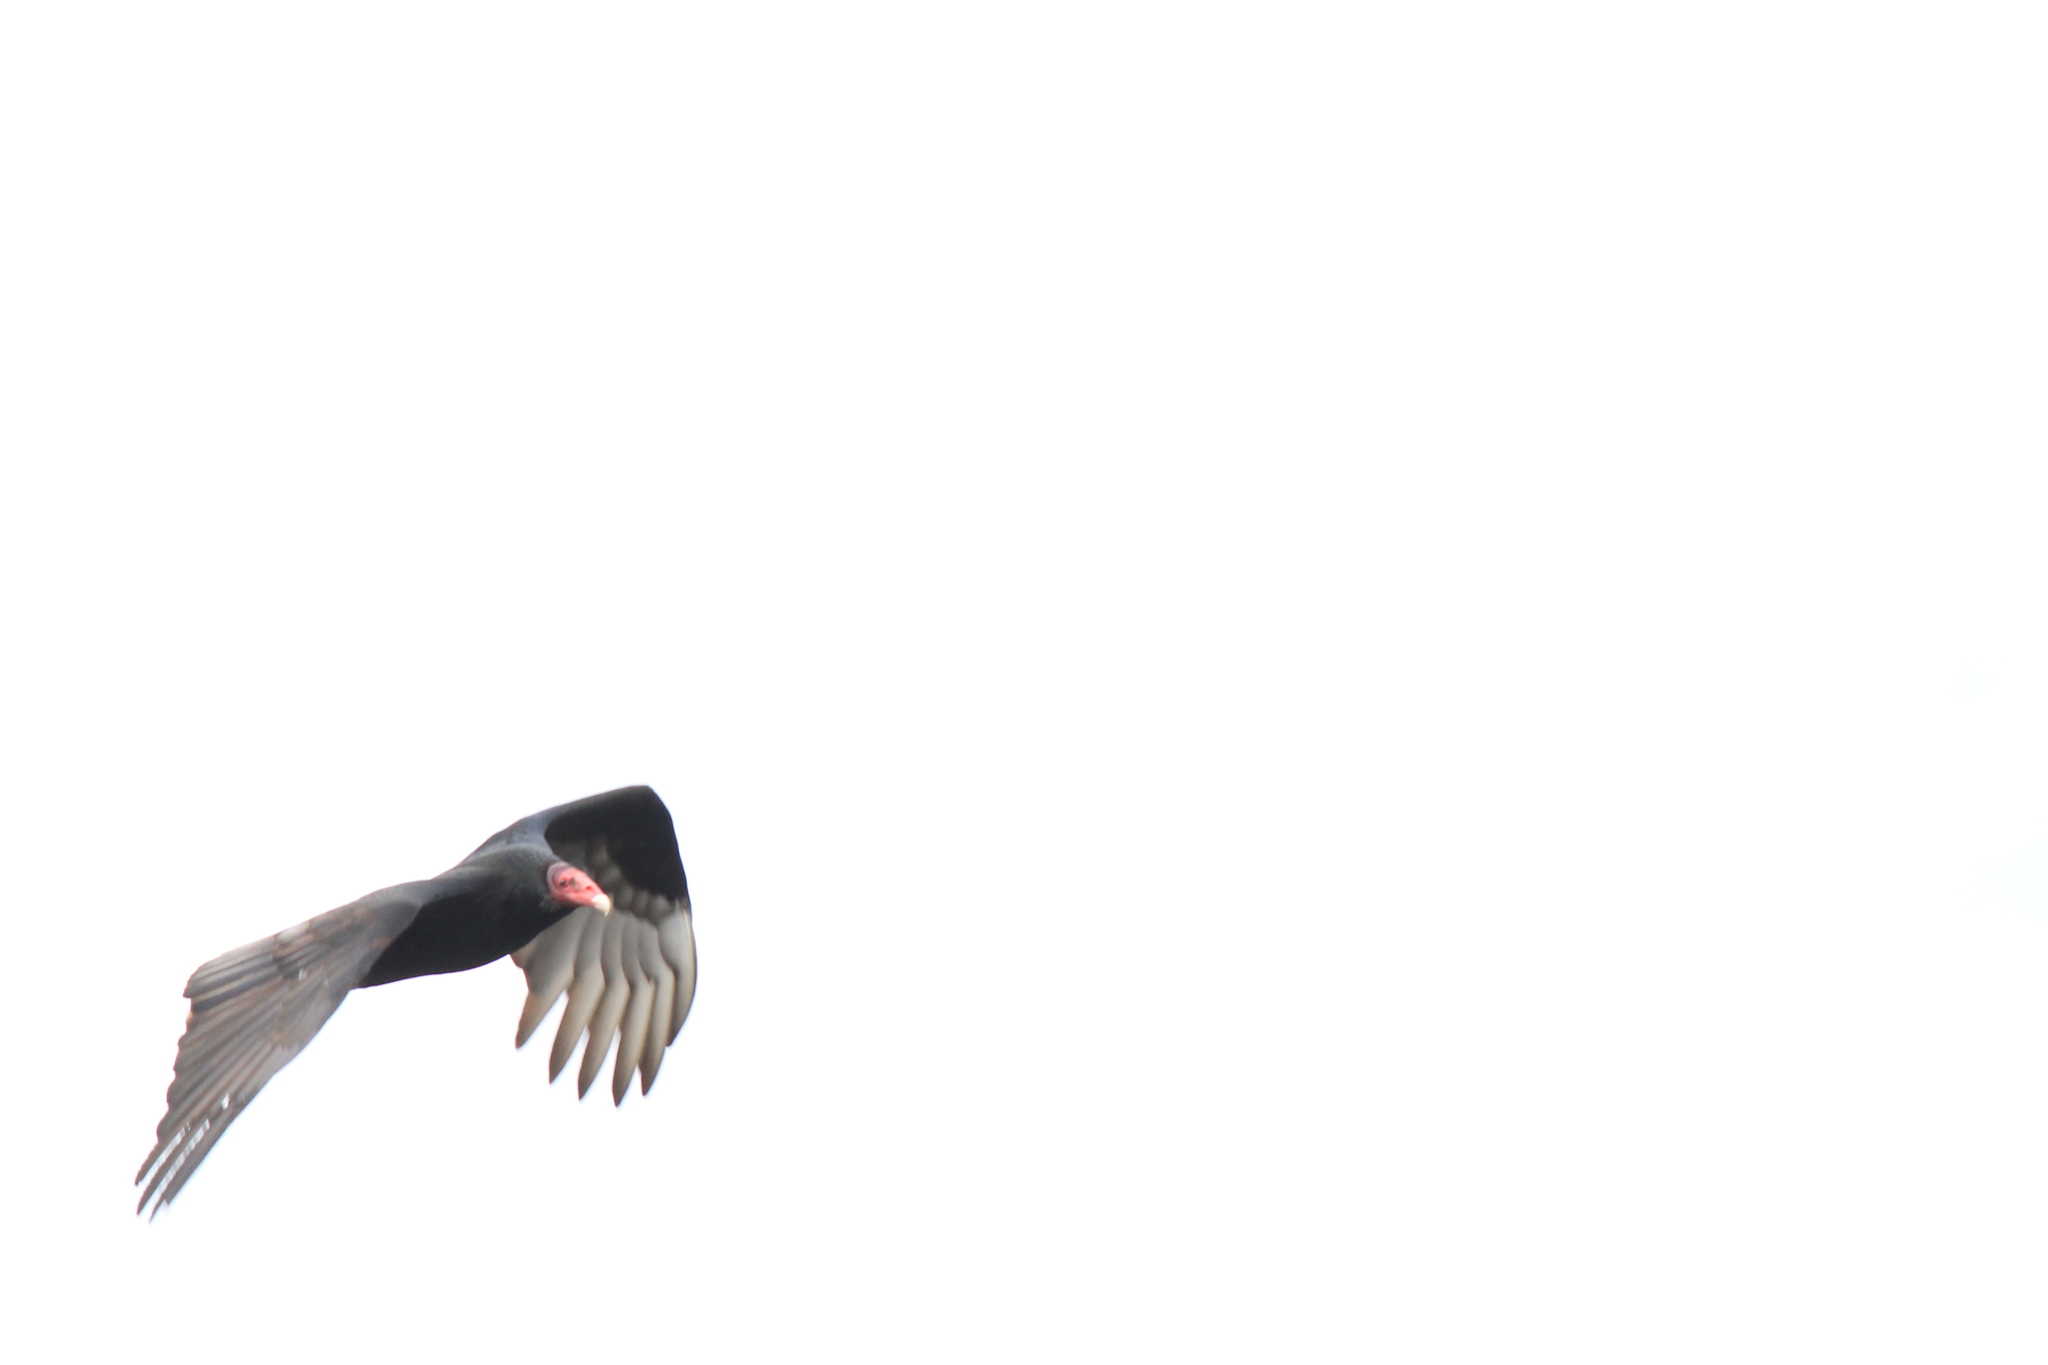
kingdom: Animalia
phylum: Chordata
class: Aves
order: Accipitriformes
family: Cathartidae
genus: Cathartes
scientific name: Cathartes aura
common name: Turkey vulture
